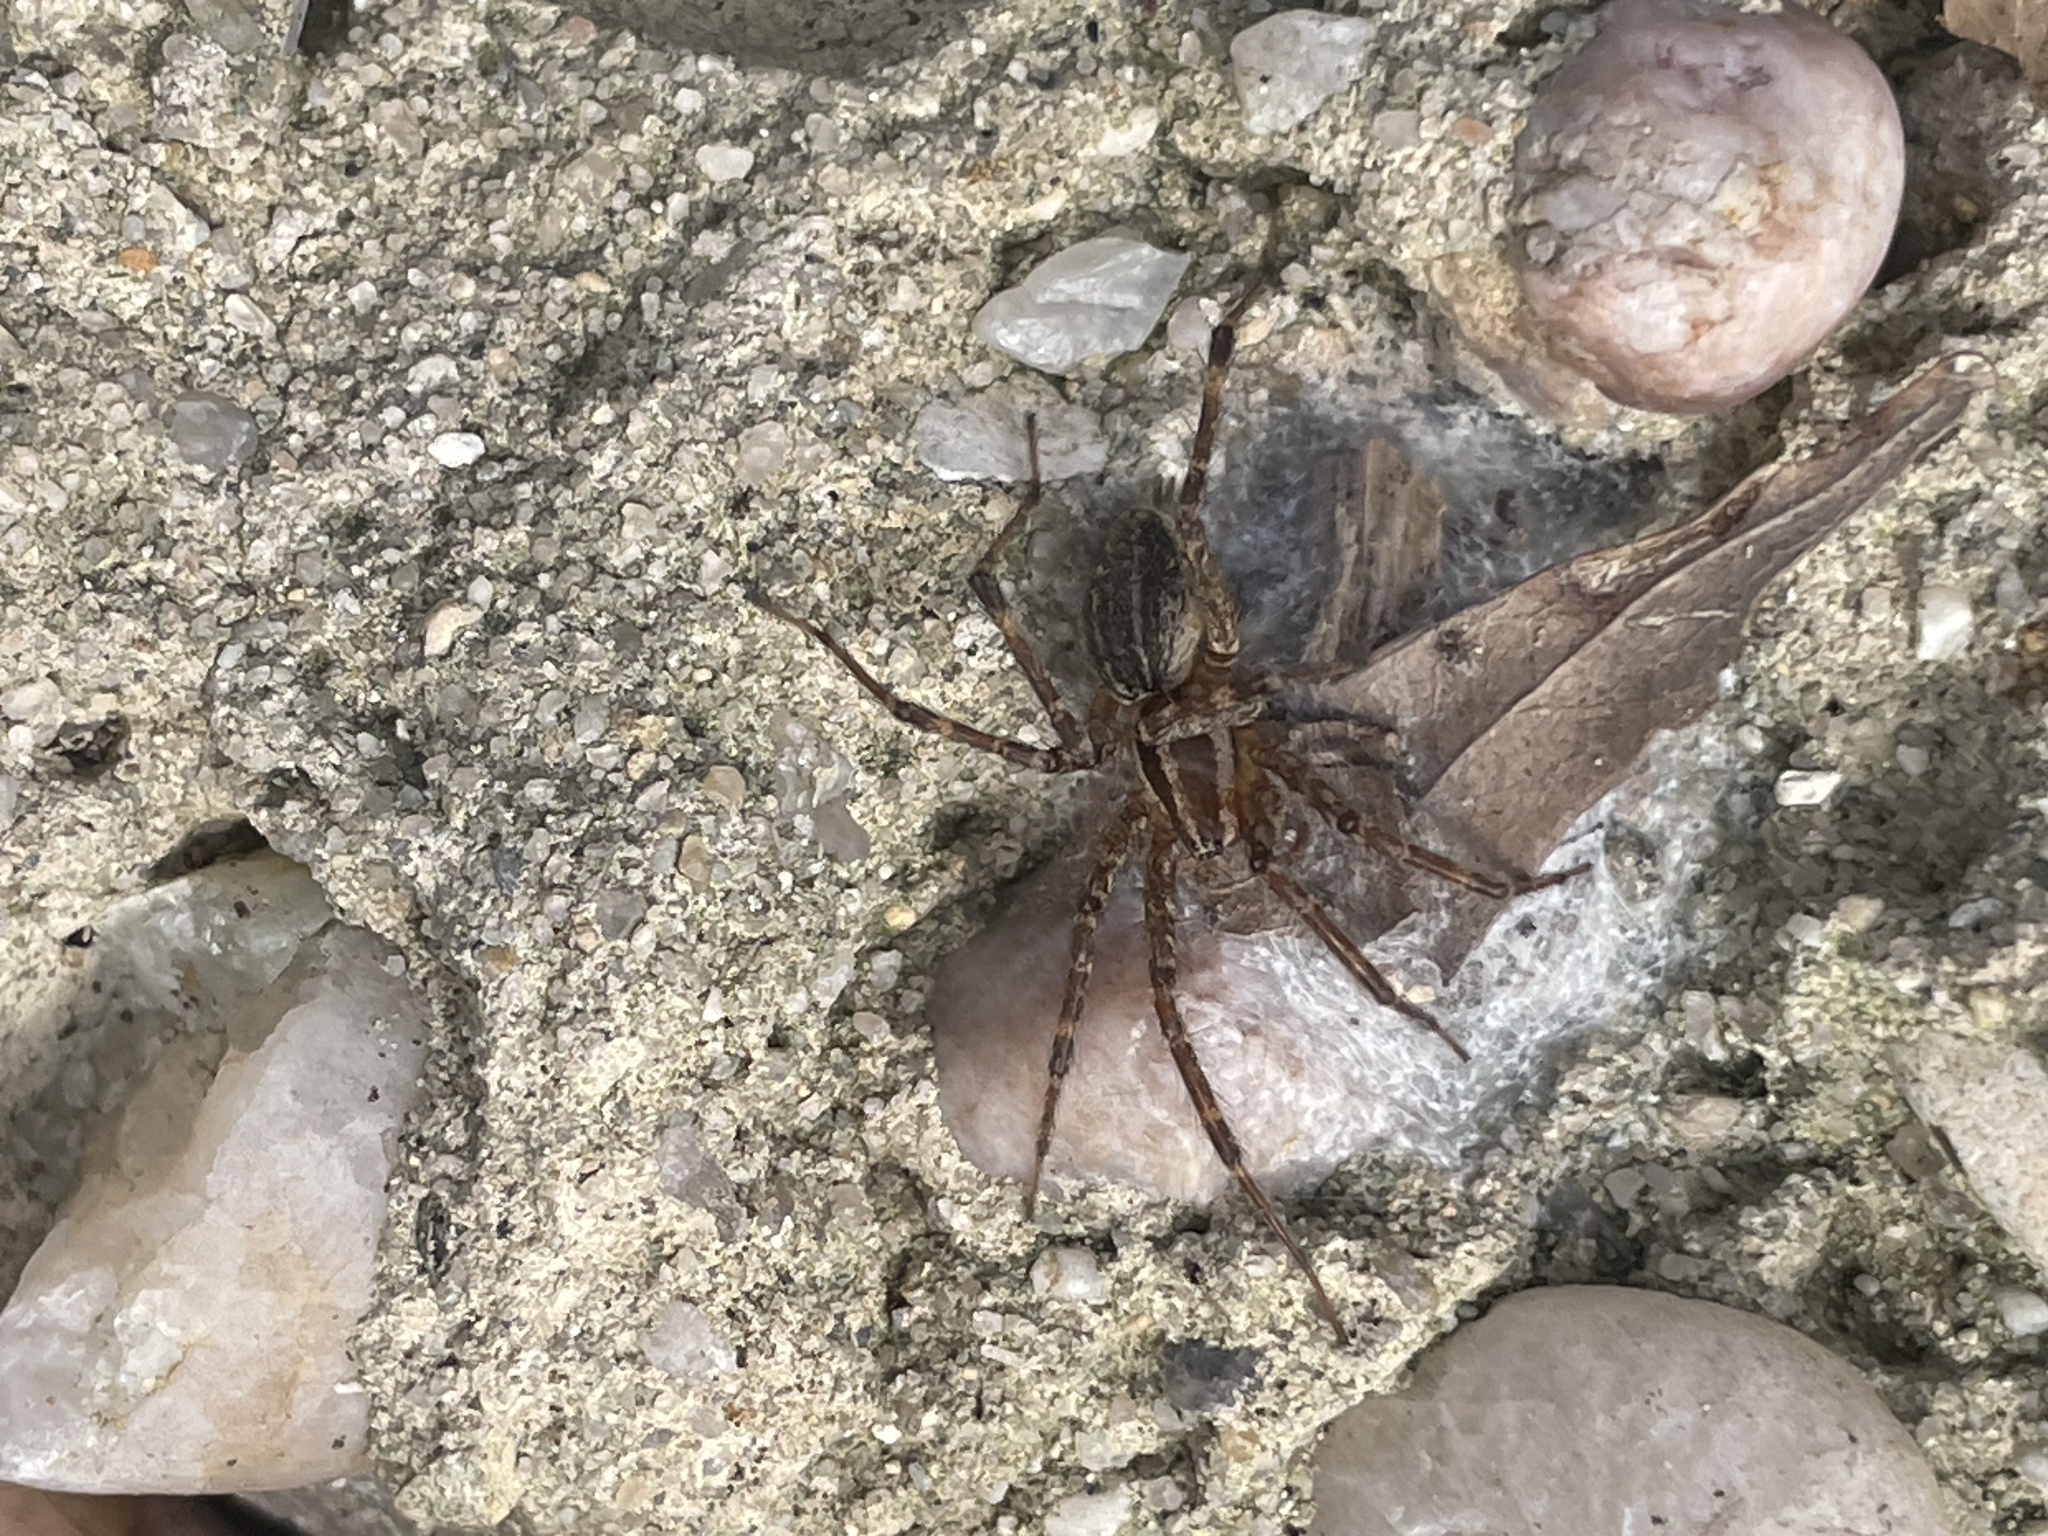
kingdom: Animalia
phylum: Arthropoda
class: Arachnida
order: Araneae
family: Agelenidae
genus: Agelenopsis
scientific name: Agelenopsis
